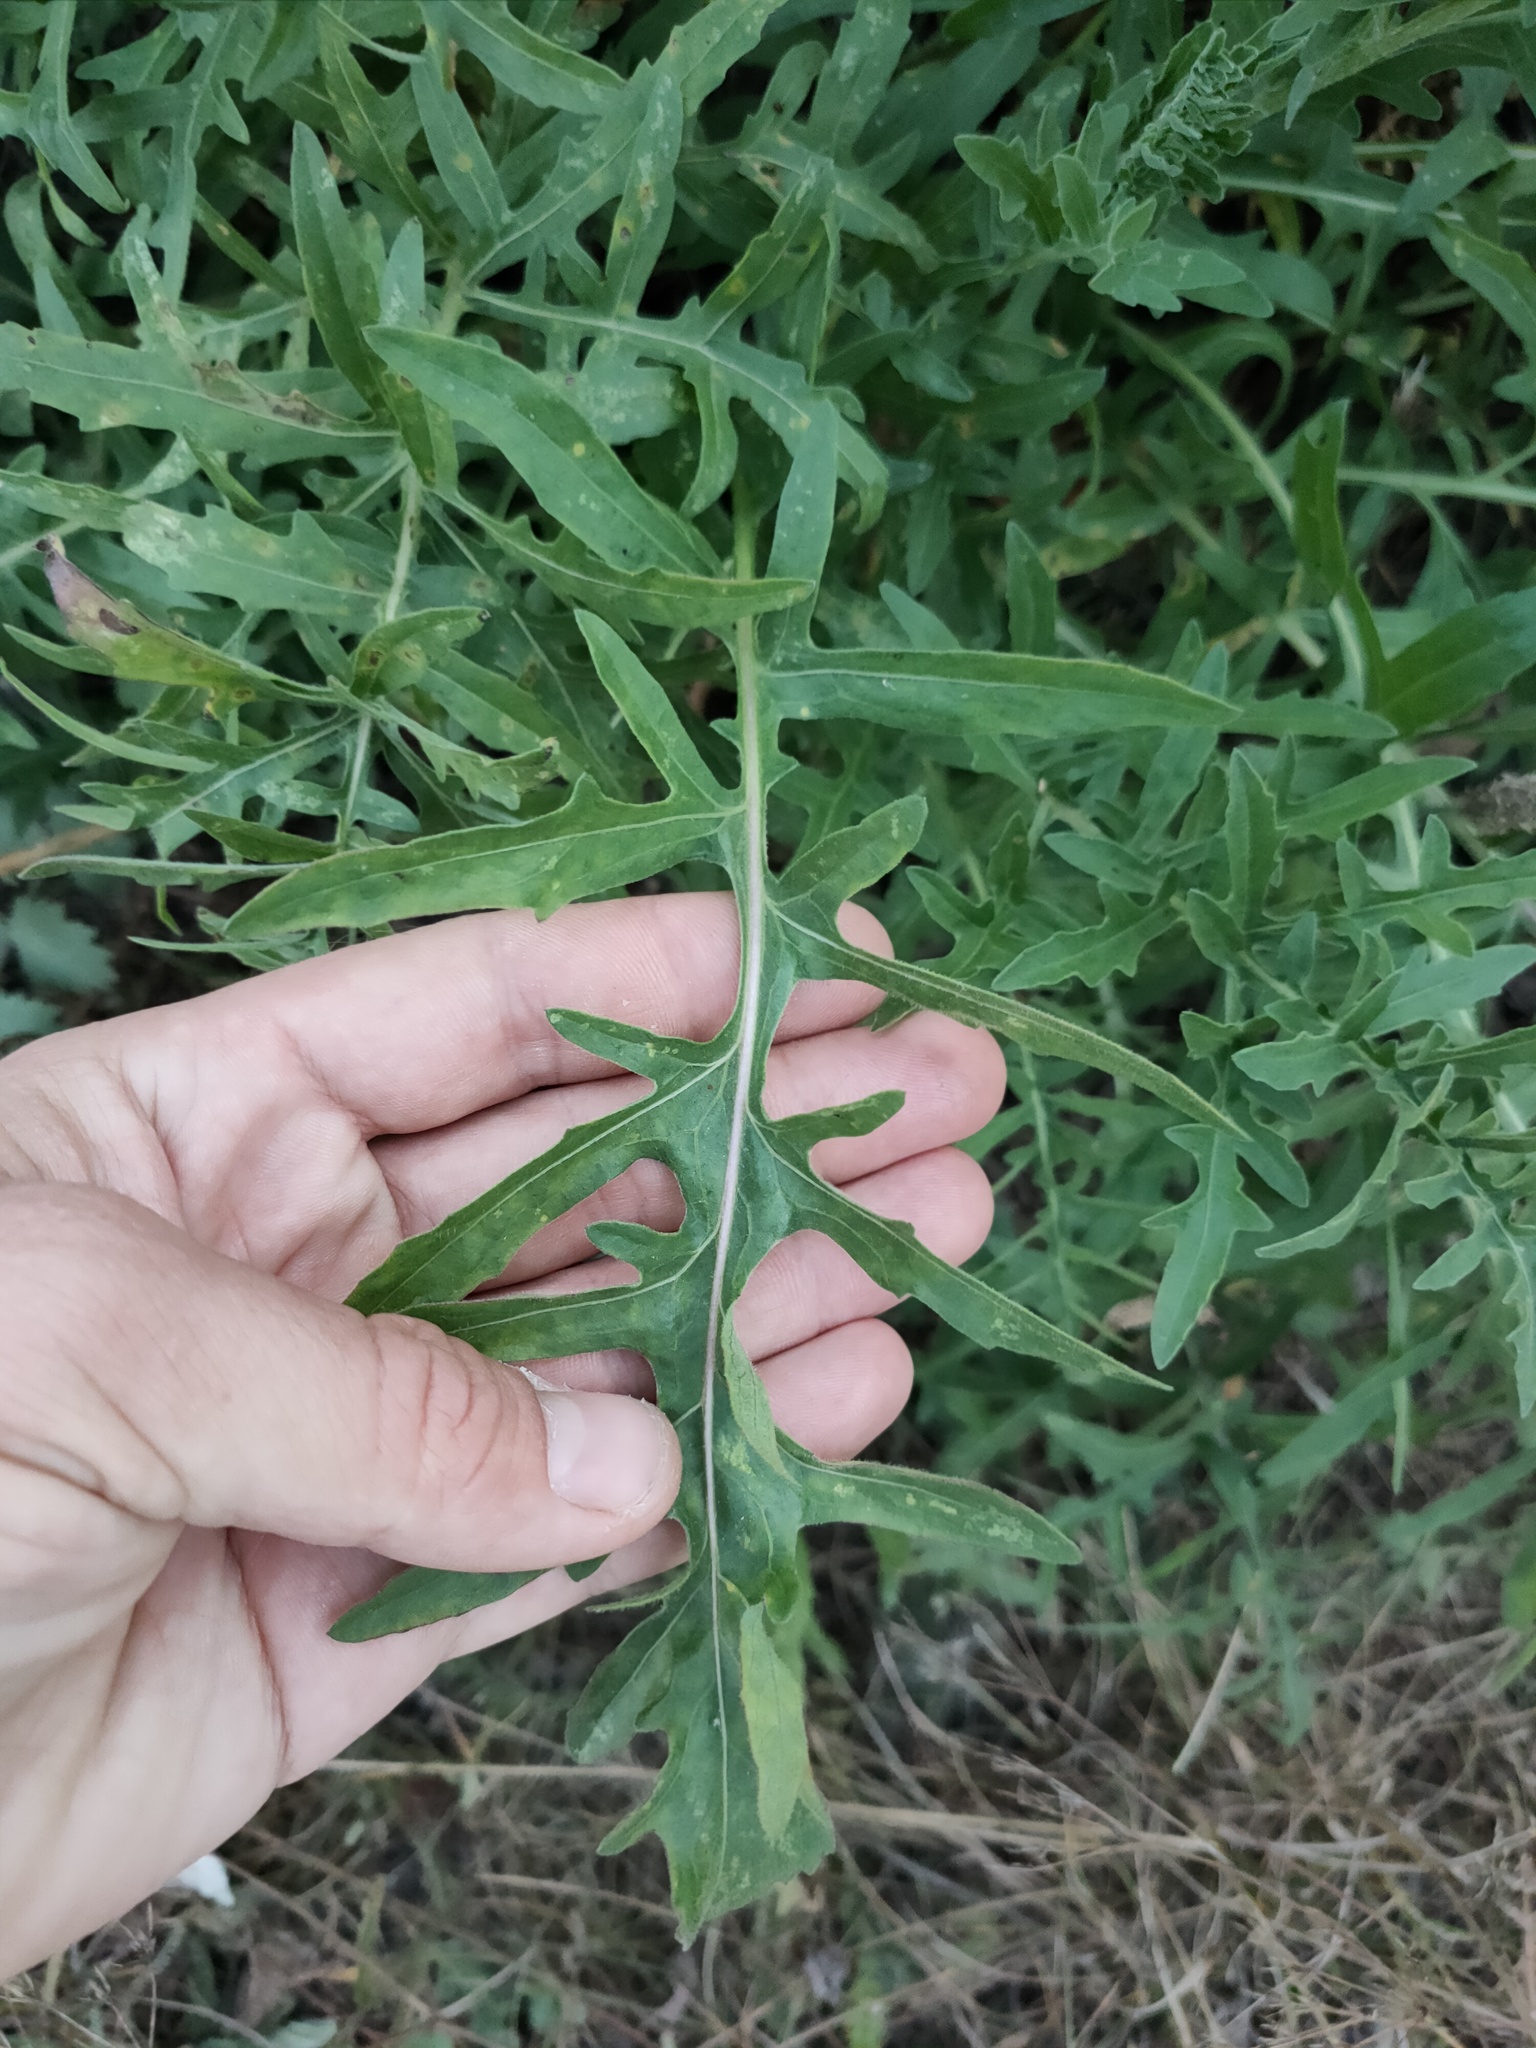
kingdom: Plantae
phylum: Tracheophyta
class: Magnoliopsida
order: Asterales
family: Asteraceae
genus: Centaurea
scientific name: Centaurea scabiosa
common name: Greater knapweed
